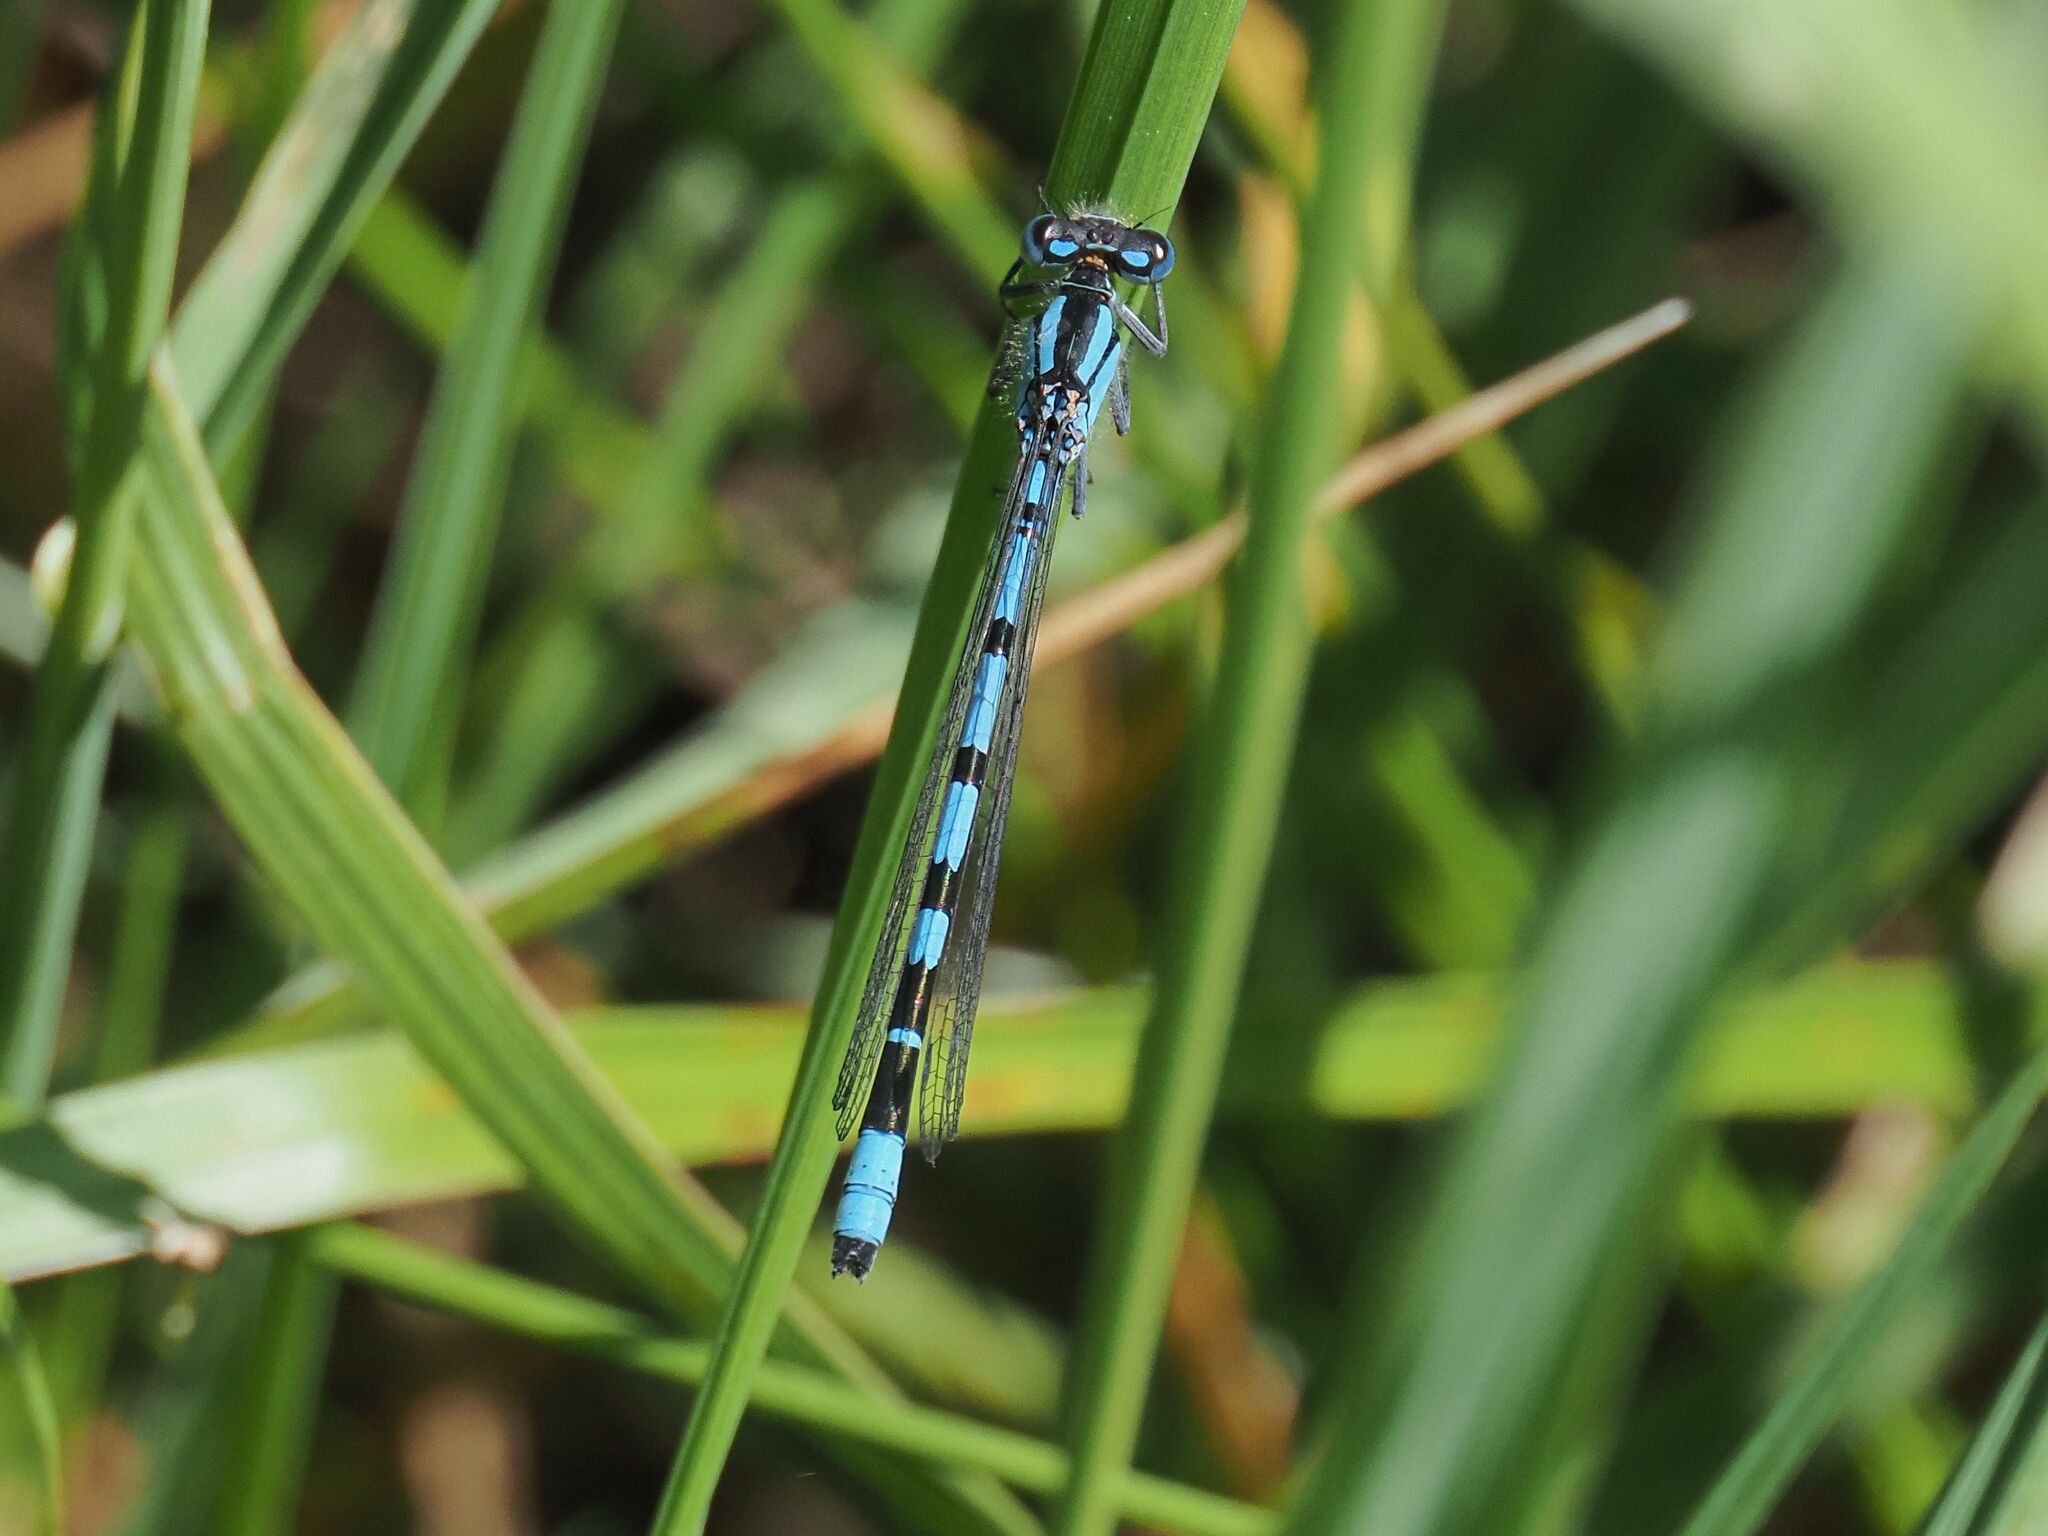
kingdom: Animalia
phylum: Arthropoda
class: Insecta
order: Odonata
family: Coenagrionidae
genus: Enallagma
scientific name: Enallagma cyathigerum
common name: Common blue damselfly
